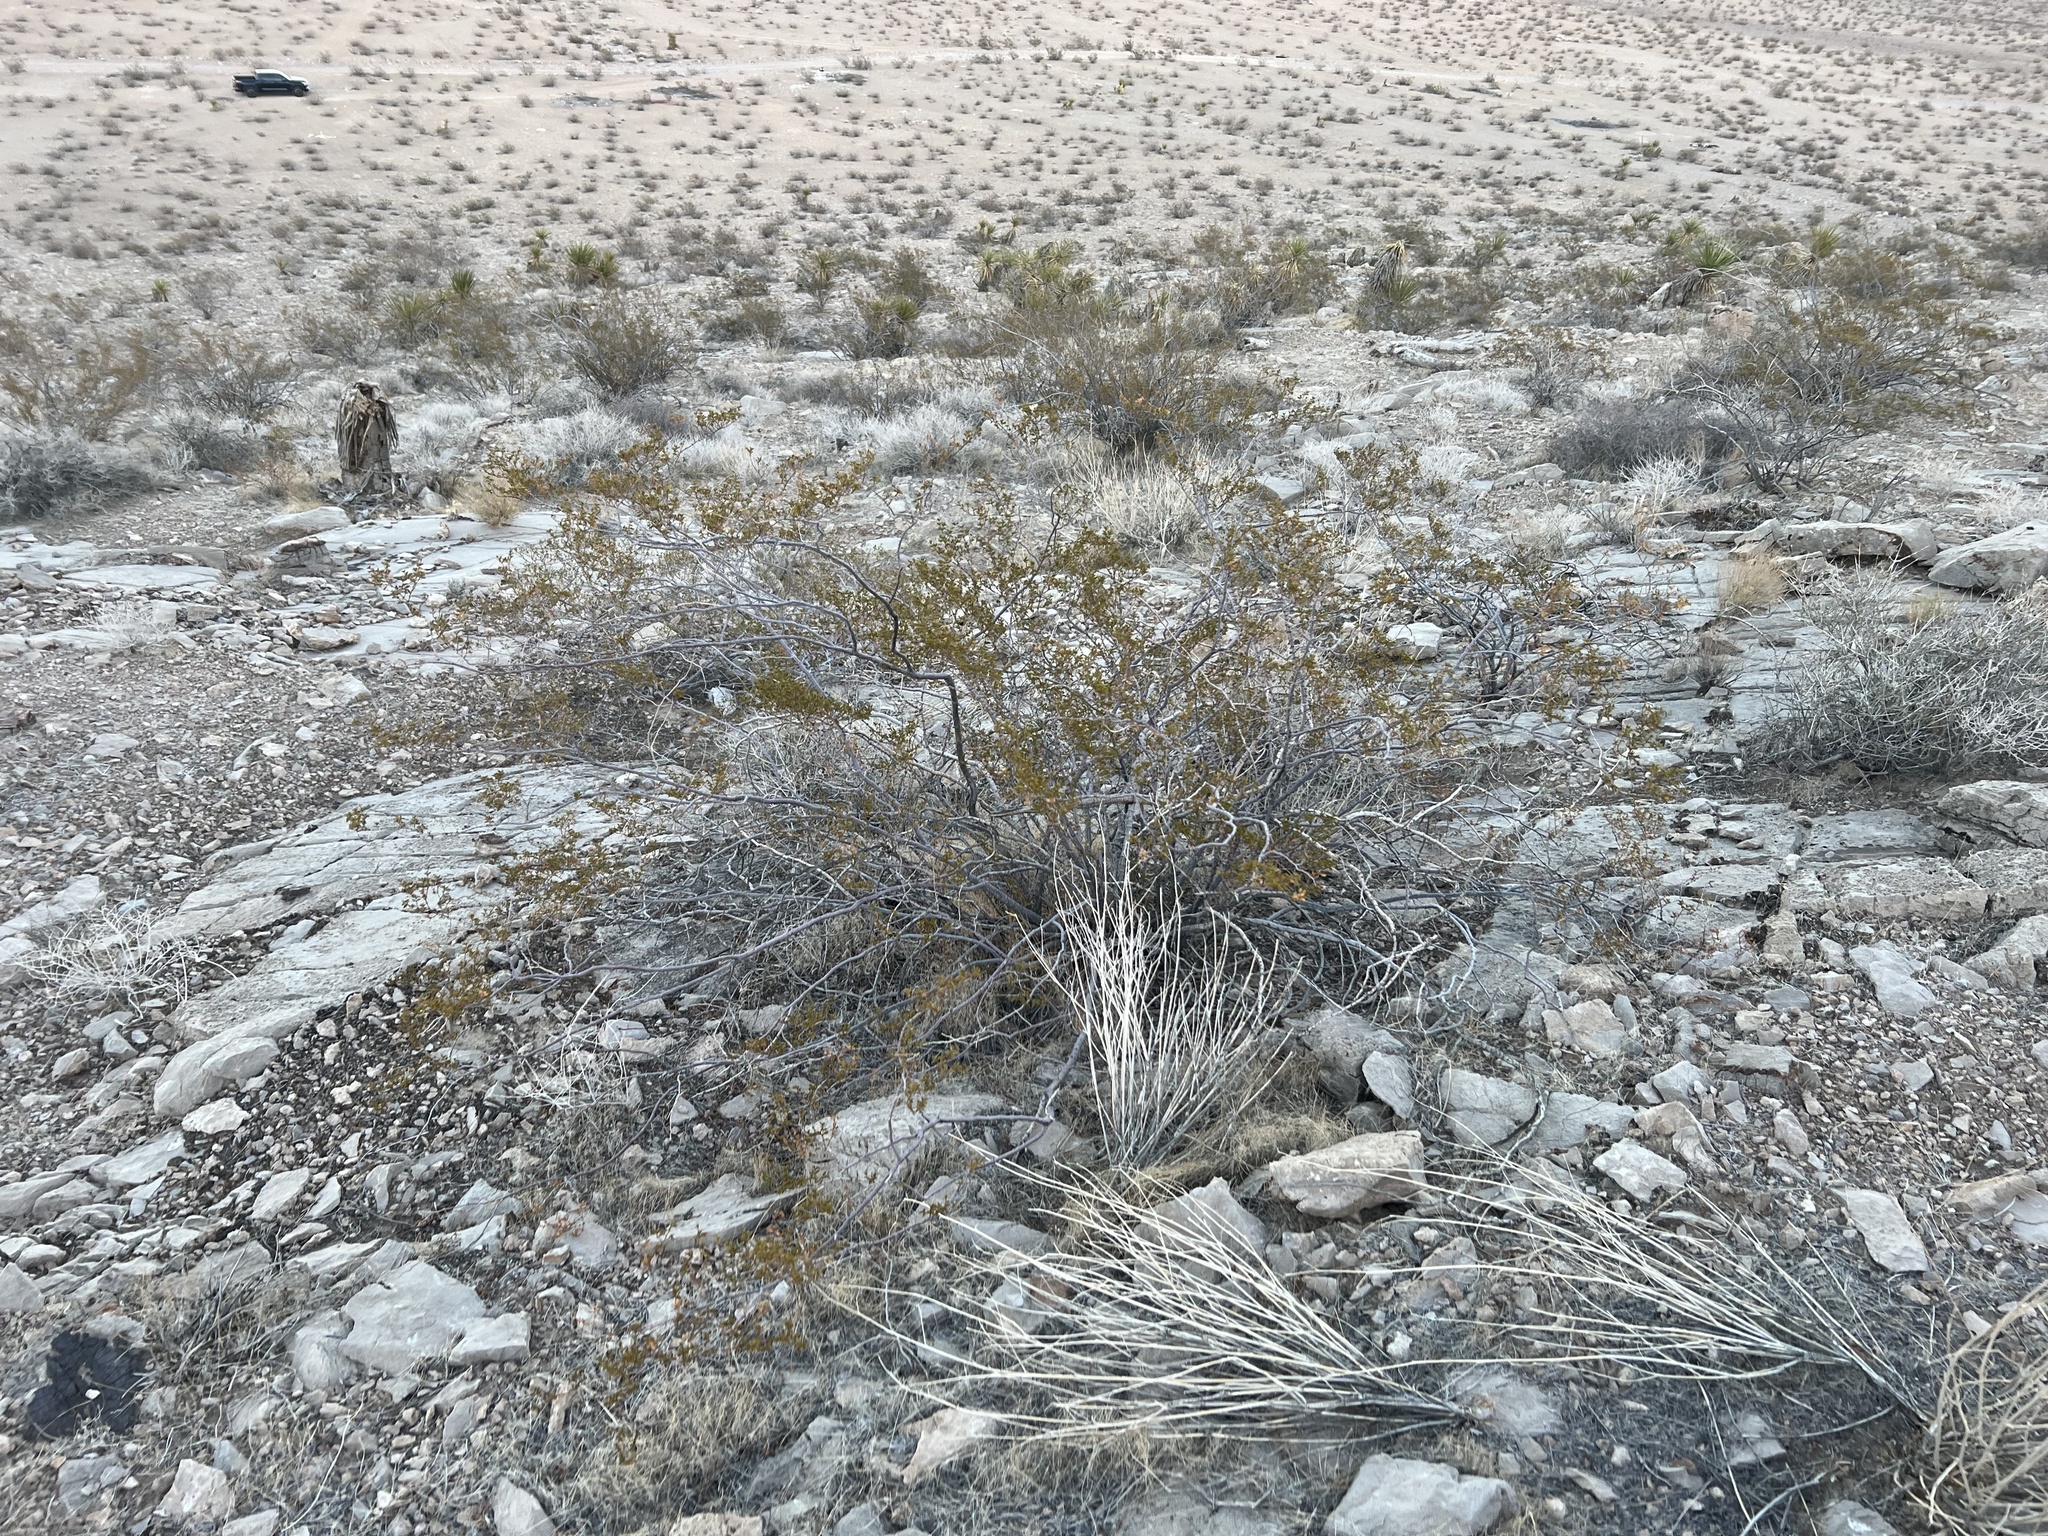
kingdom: Plantae
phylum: Tracheophyta
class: Magnoliopsida
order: Zygophyllales
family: Zygophyllaceae
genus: Larrea
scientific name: Larrea tridentata
